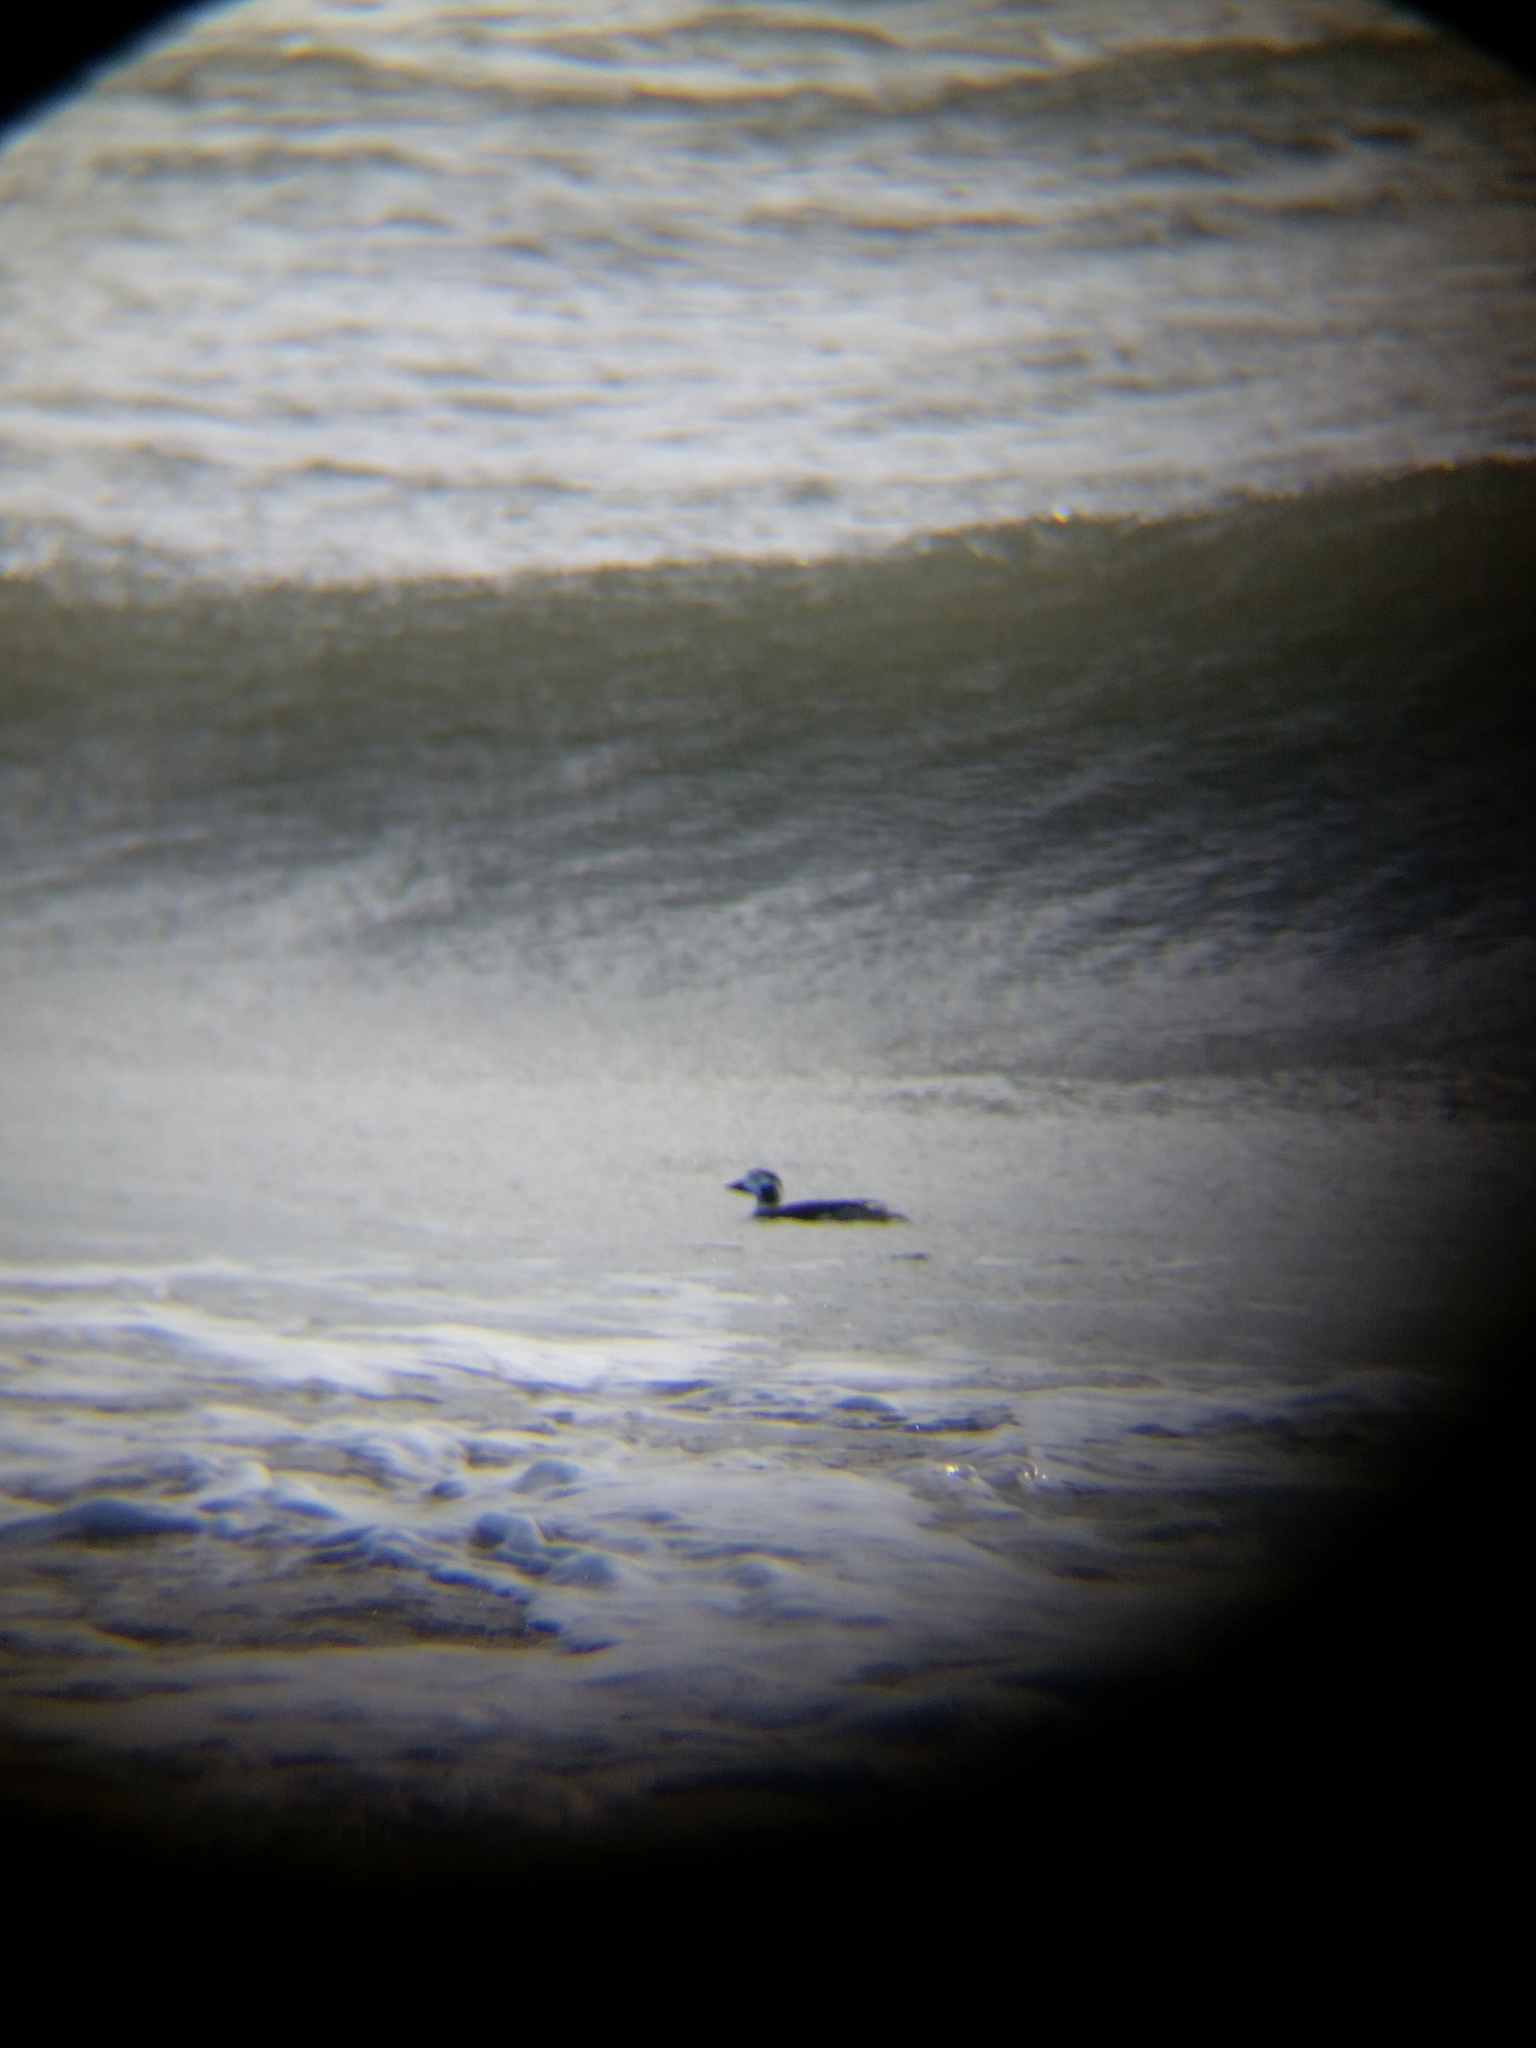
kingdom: Animalia
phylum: Chordata
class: Aves
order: Anseriformes
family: Anatidae
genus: Clangula
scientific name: Clangula hyemalis
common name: Long-tailed duck
